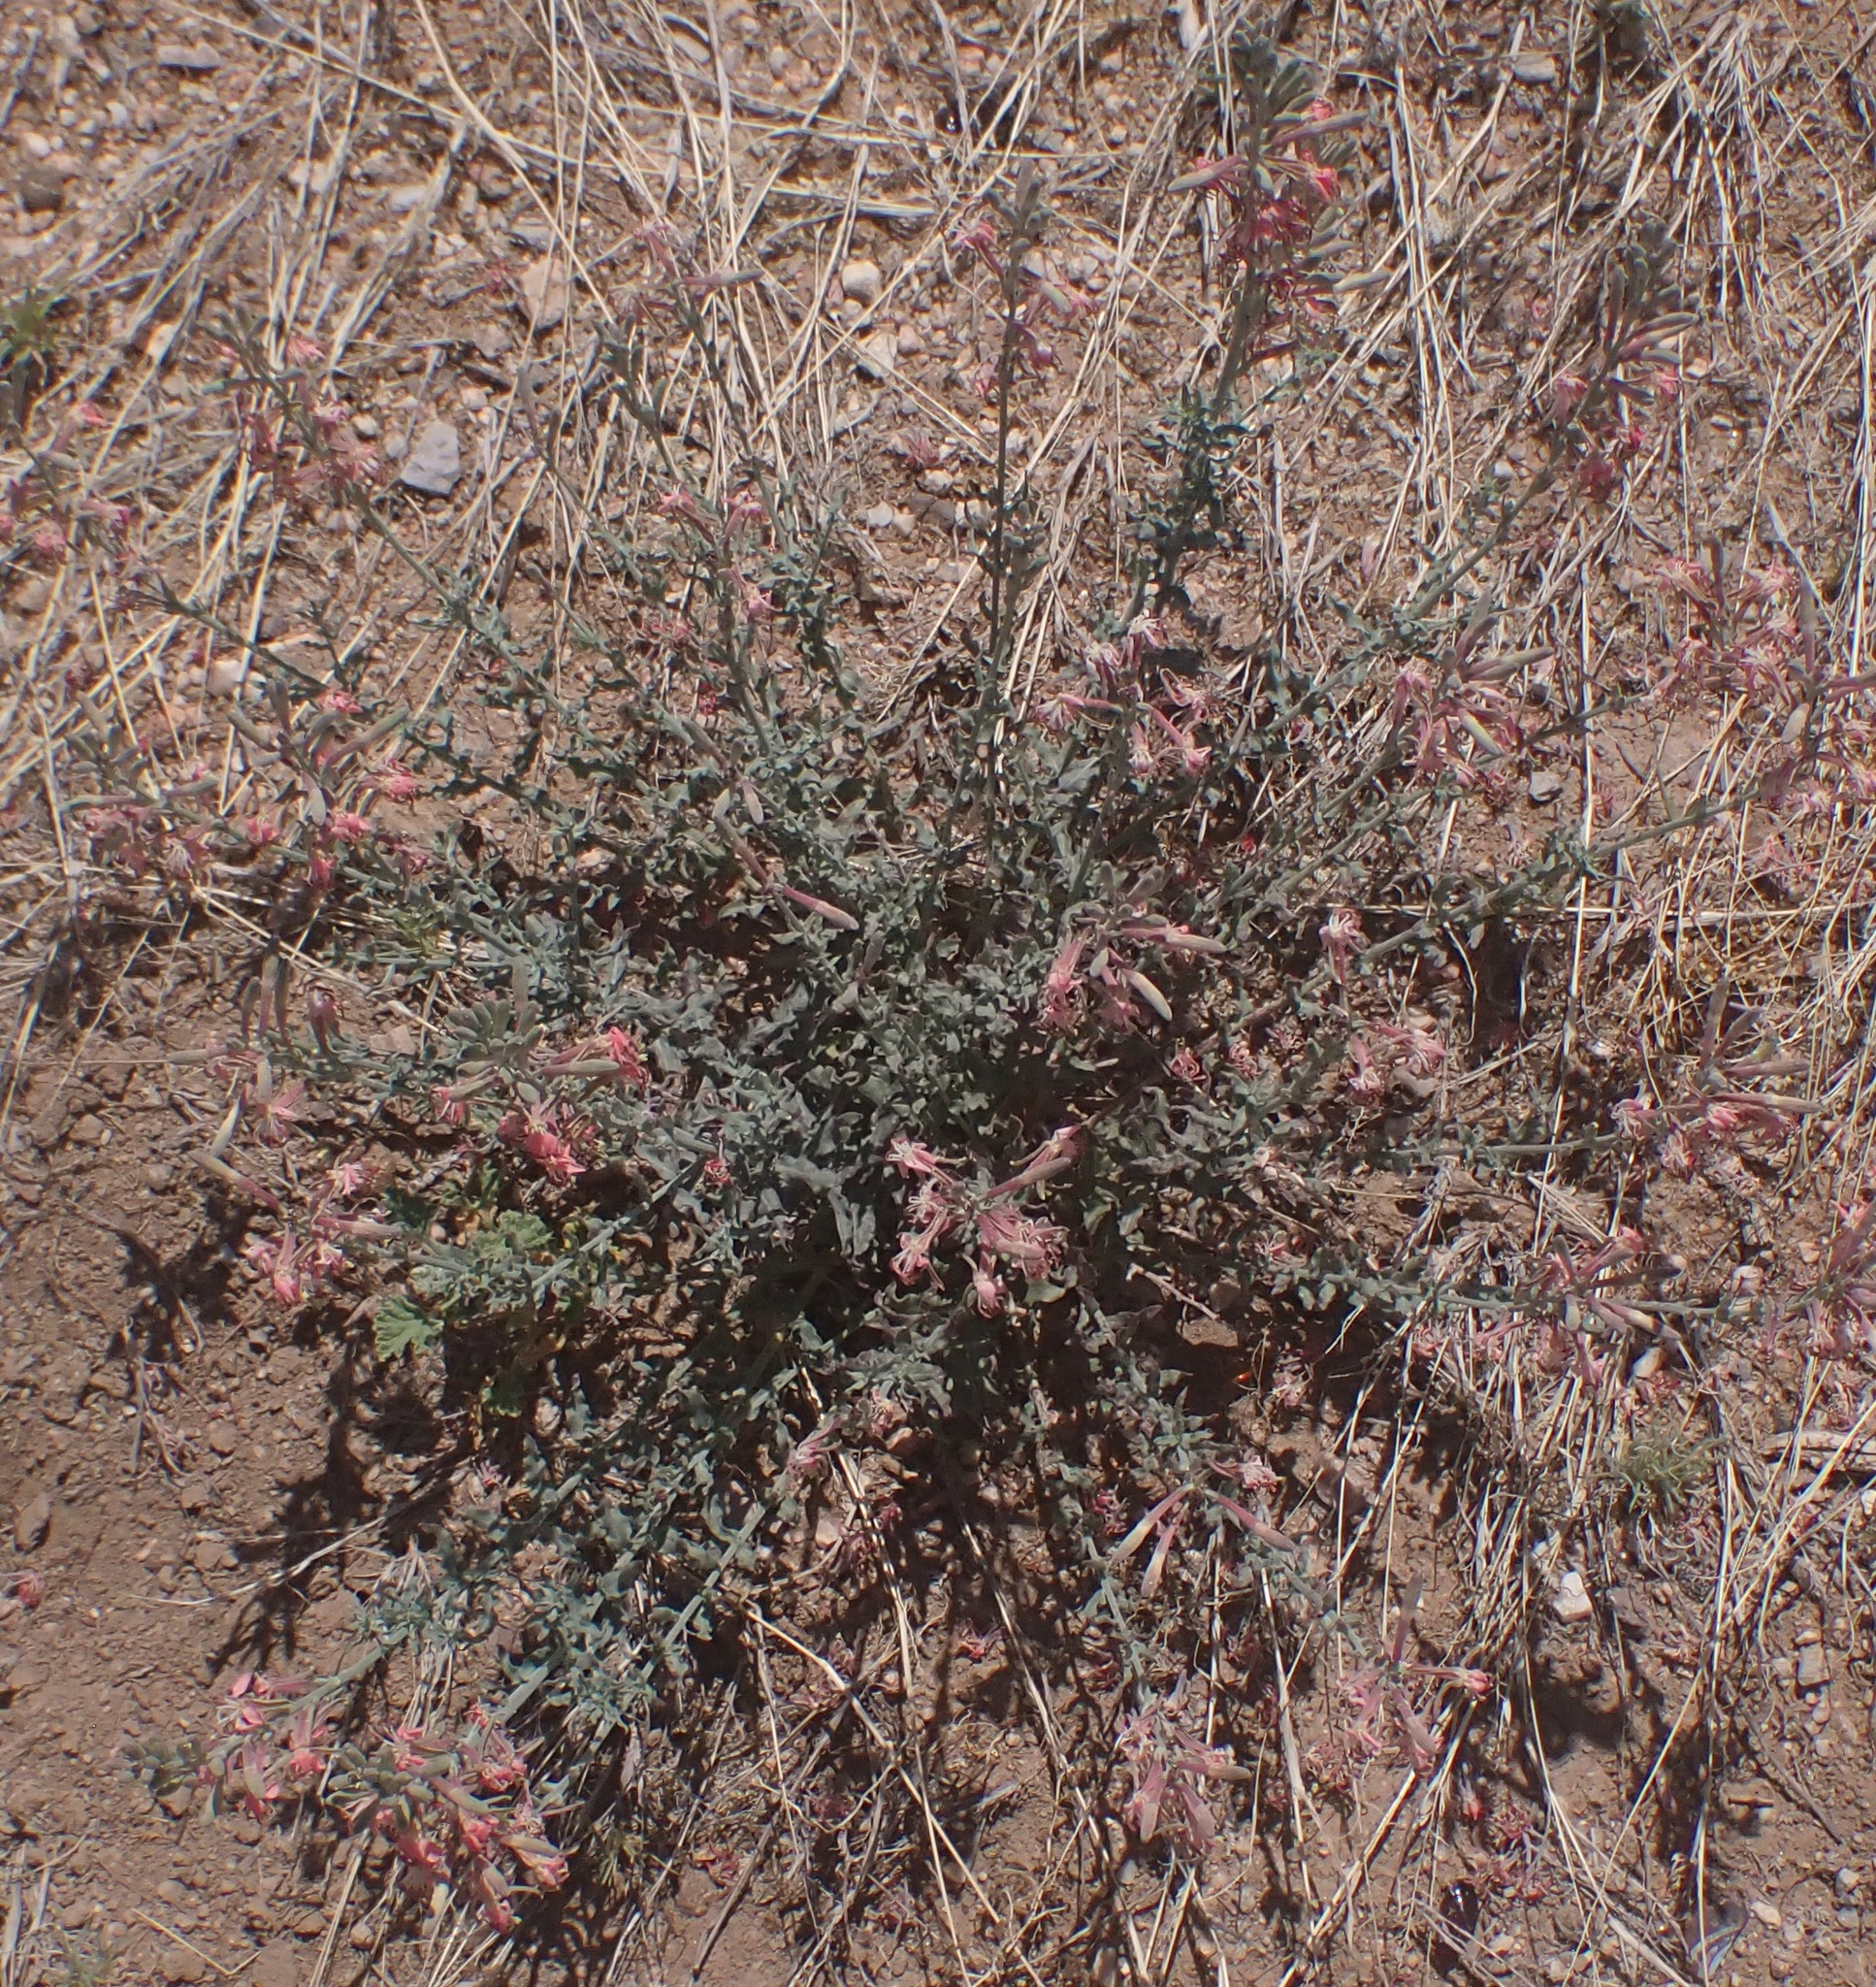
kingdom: Plantae
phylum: Tracheophyta
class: Magnoliopsida
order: Myrtales
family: Onagraceae
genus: Oenothera
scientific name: Oenothera suffrutescens
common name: Scarlet beeblossom
